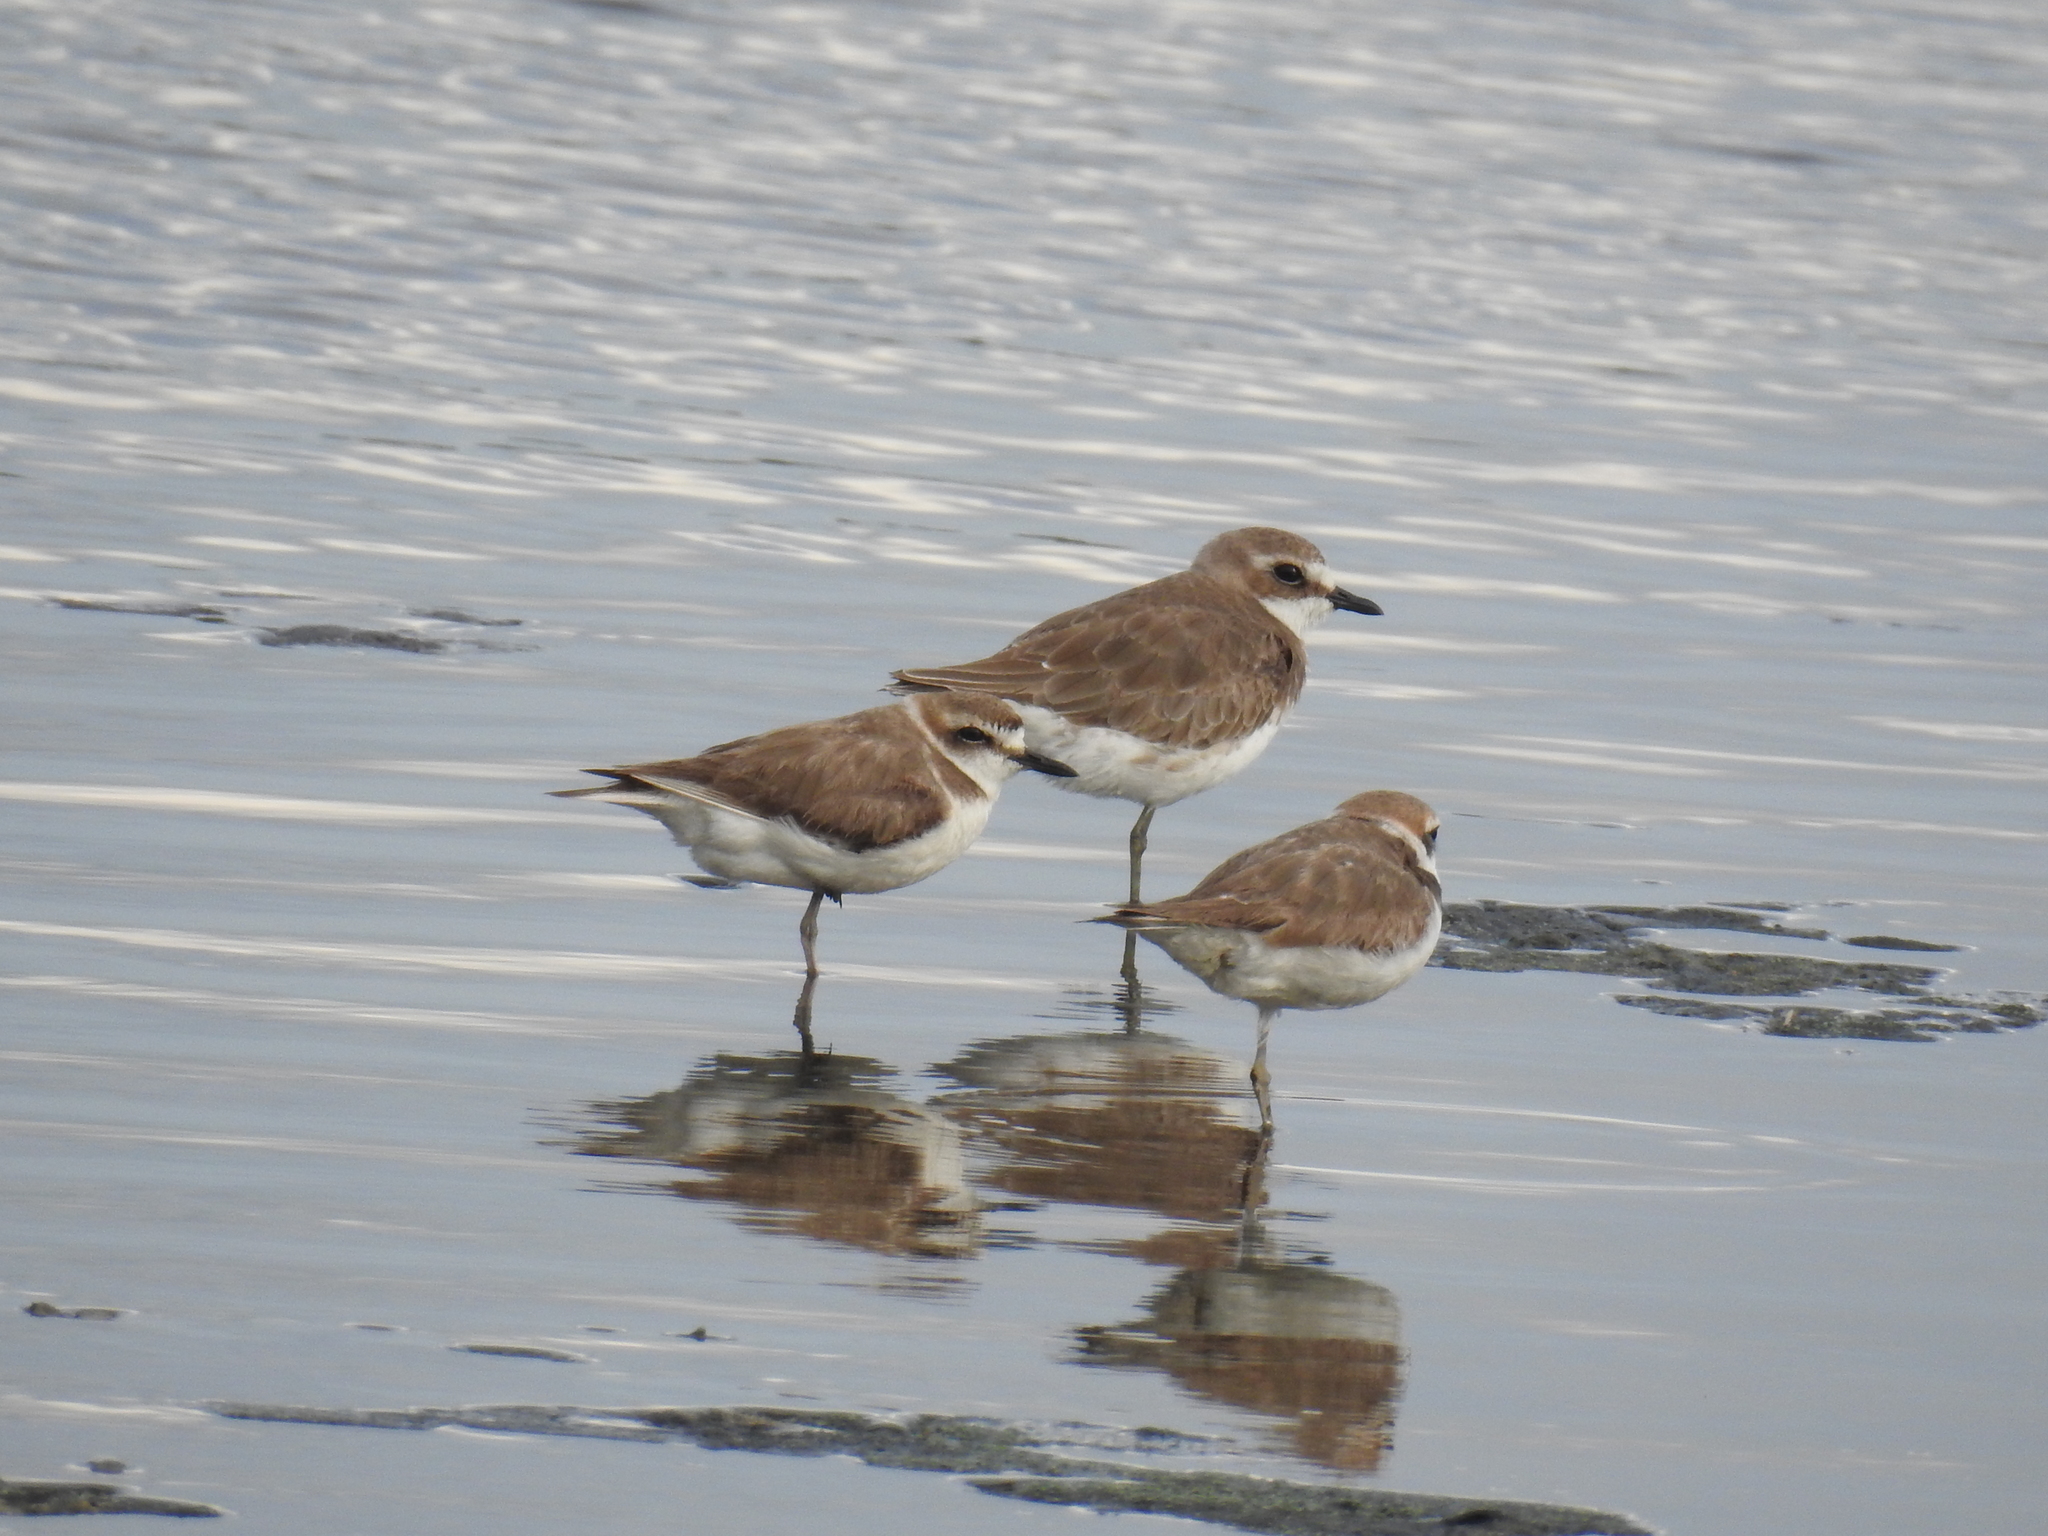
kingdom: Animalia
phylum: Chordata
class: Aves
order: Charadriiformes
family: Charadriidae
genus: Charadrius
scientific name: Charadrius alexandrinus
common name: Kentish plover
